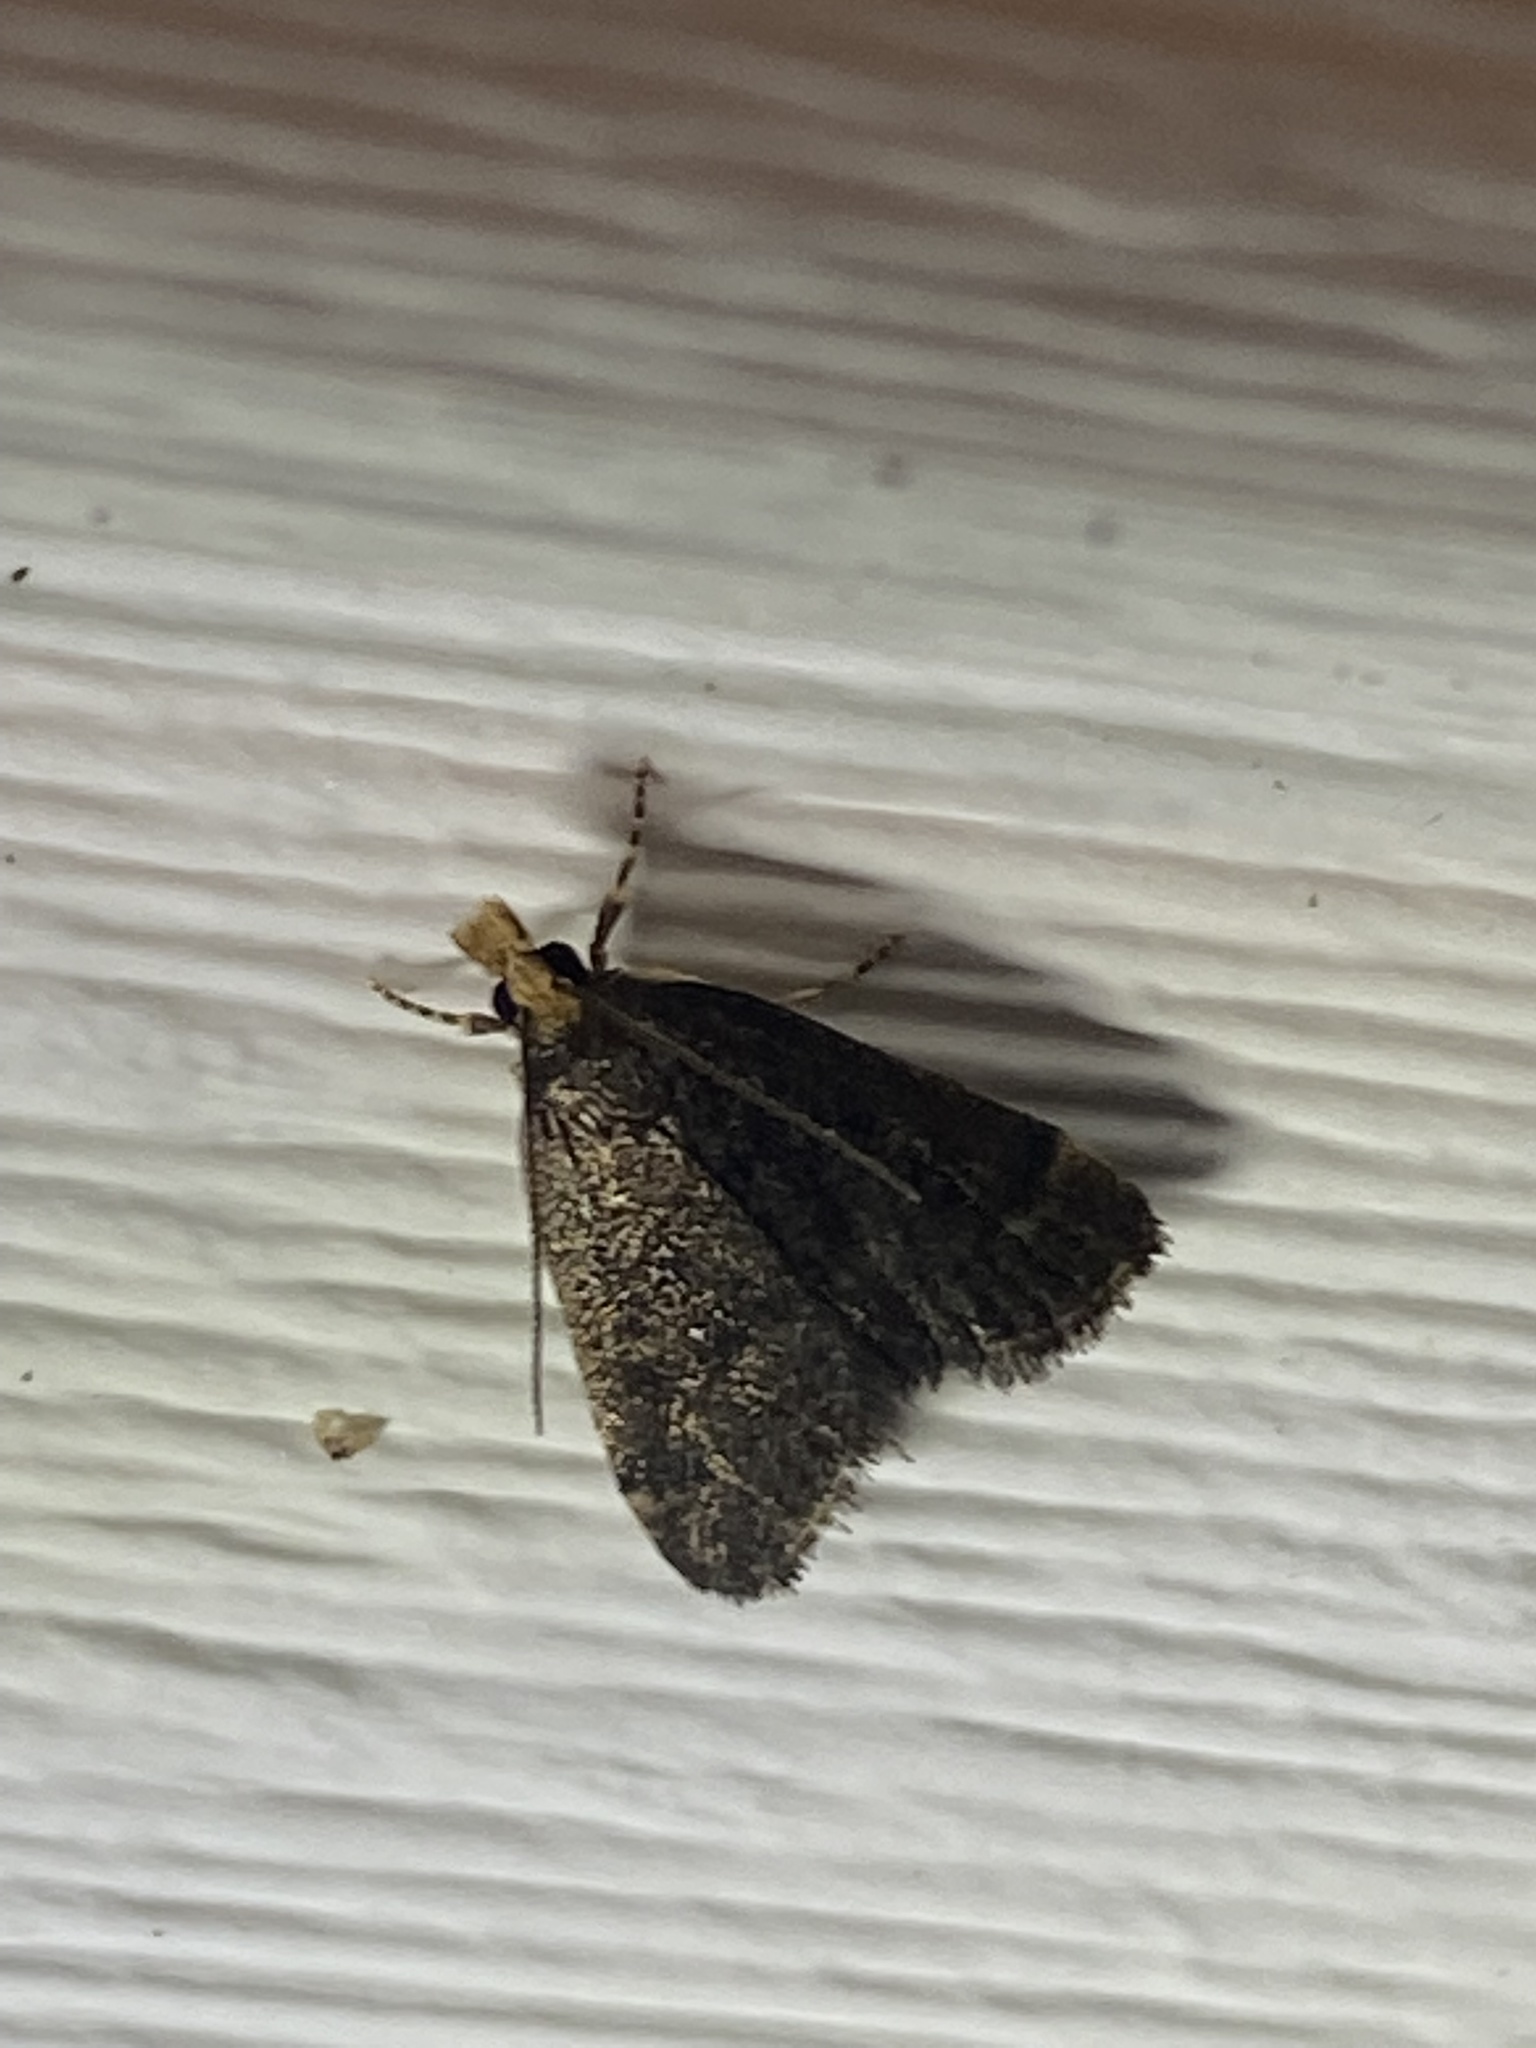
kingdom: Animalia
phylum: Arthropoda
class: Insecta
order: Lepidoptera
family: Crambidae
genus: Pyrausta
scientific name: Pyrausta merrickalis
